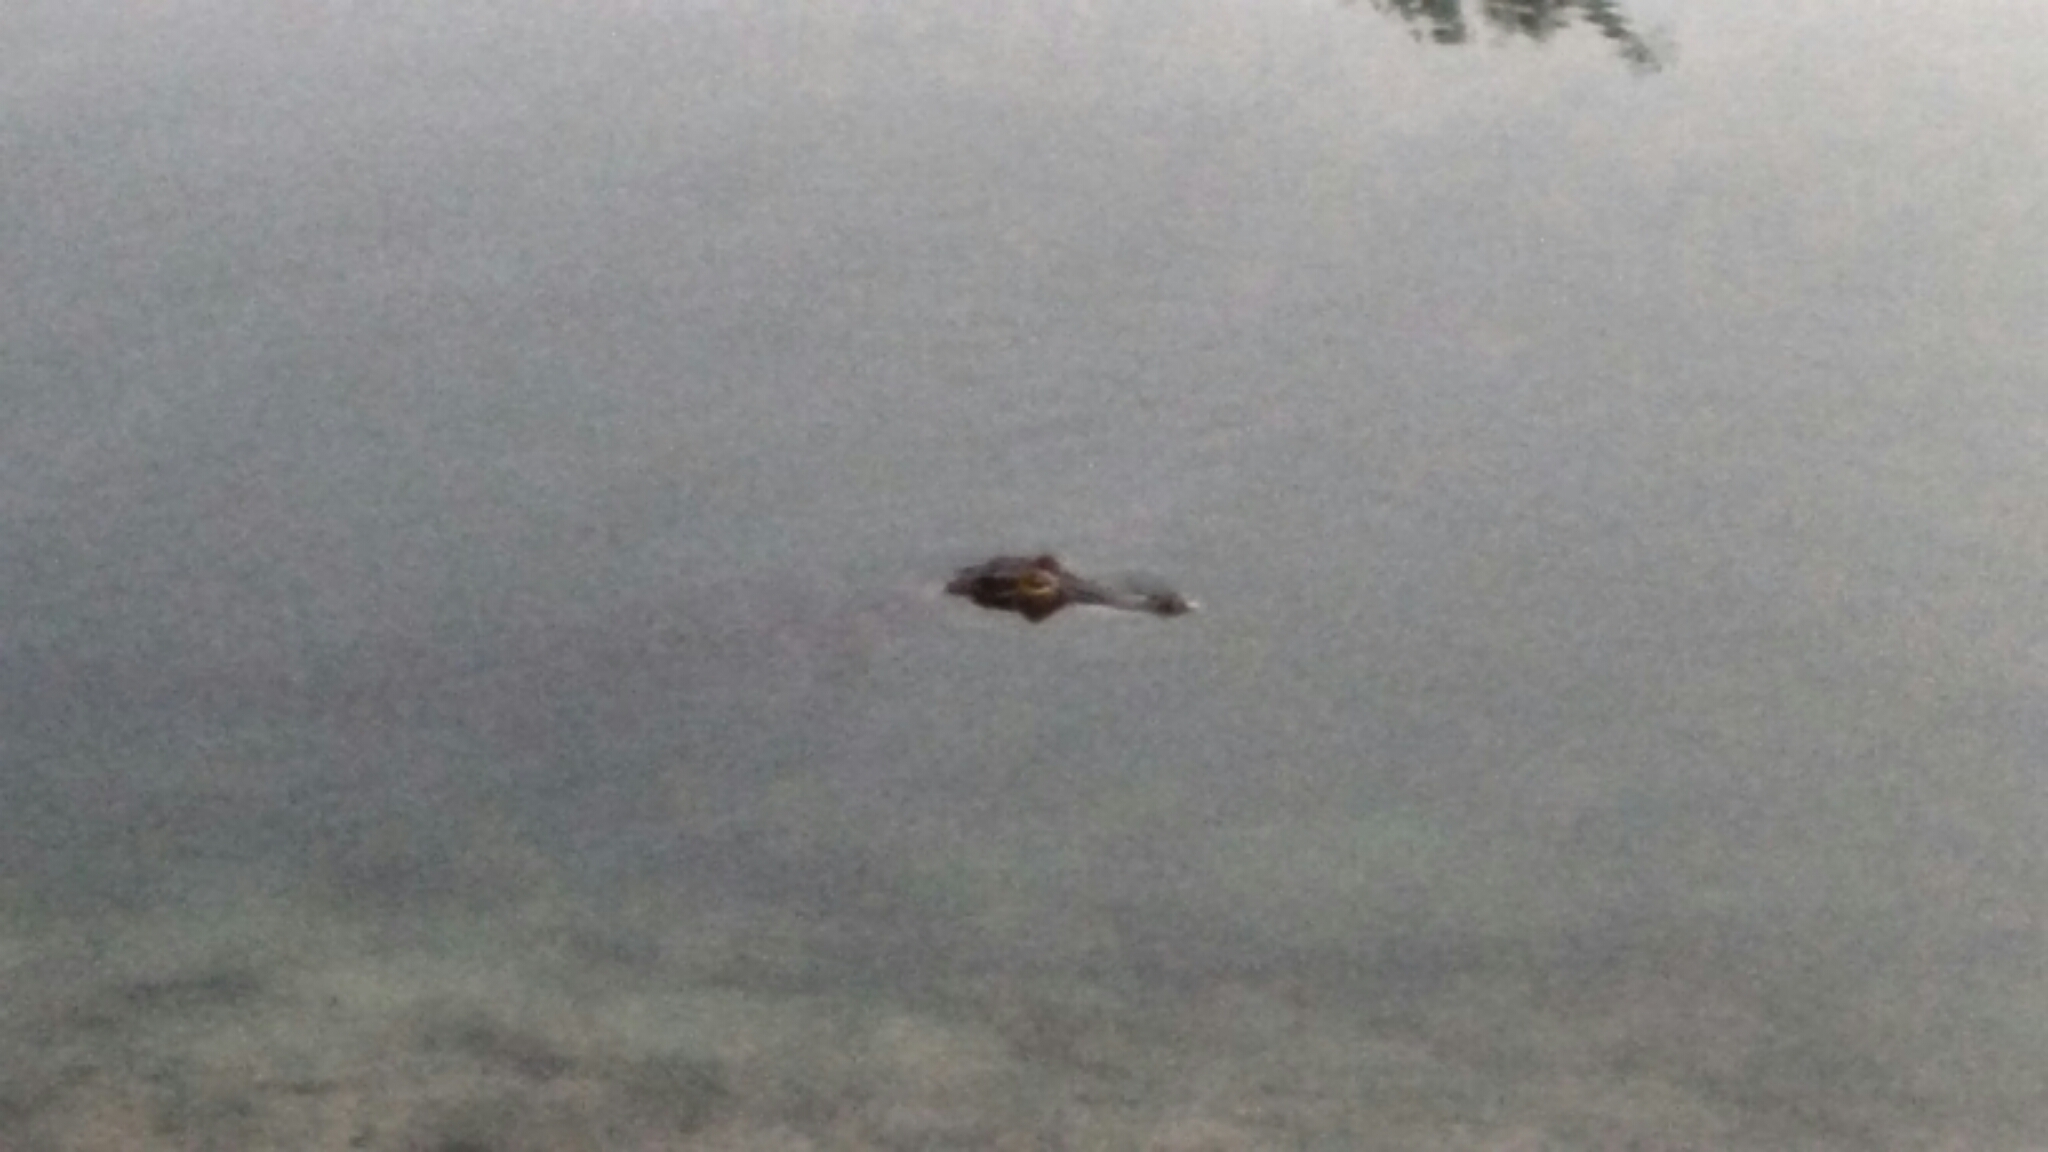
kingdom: Animalia
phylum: Chordata
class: Crocodylia
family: Alligatoridae
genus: Alligator
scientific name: Alligator mississippiensis
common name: American alligator
